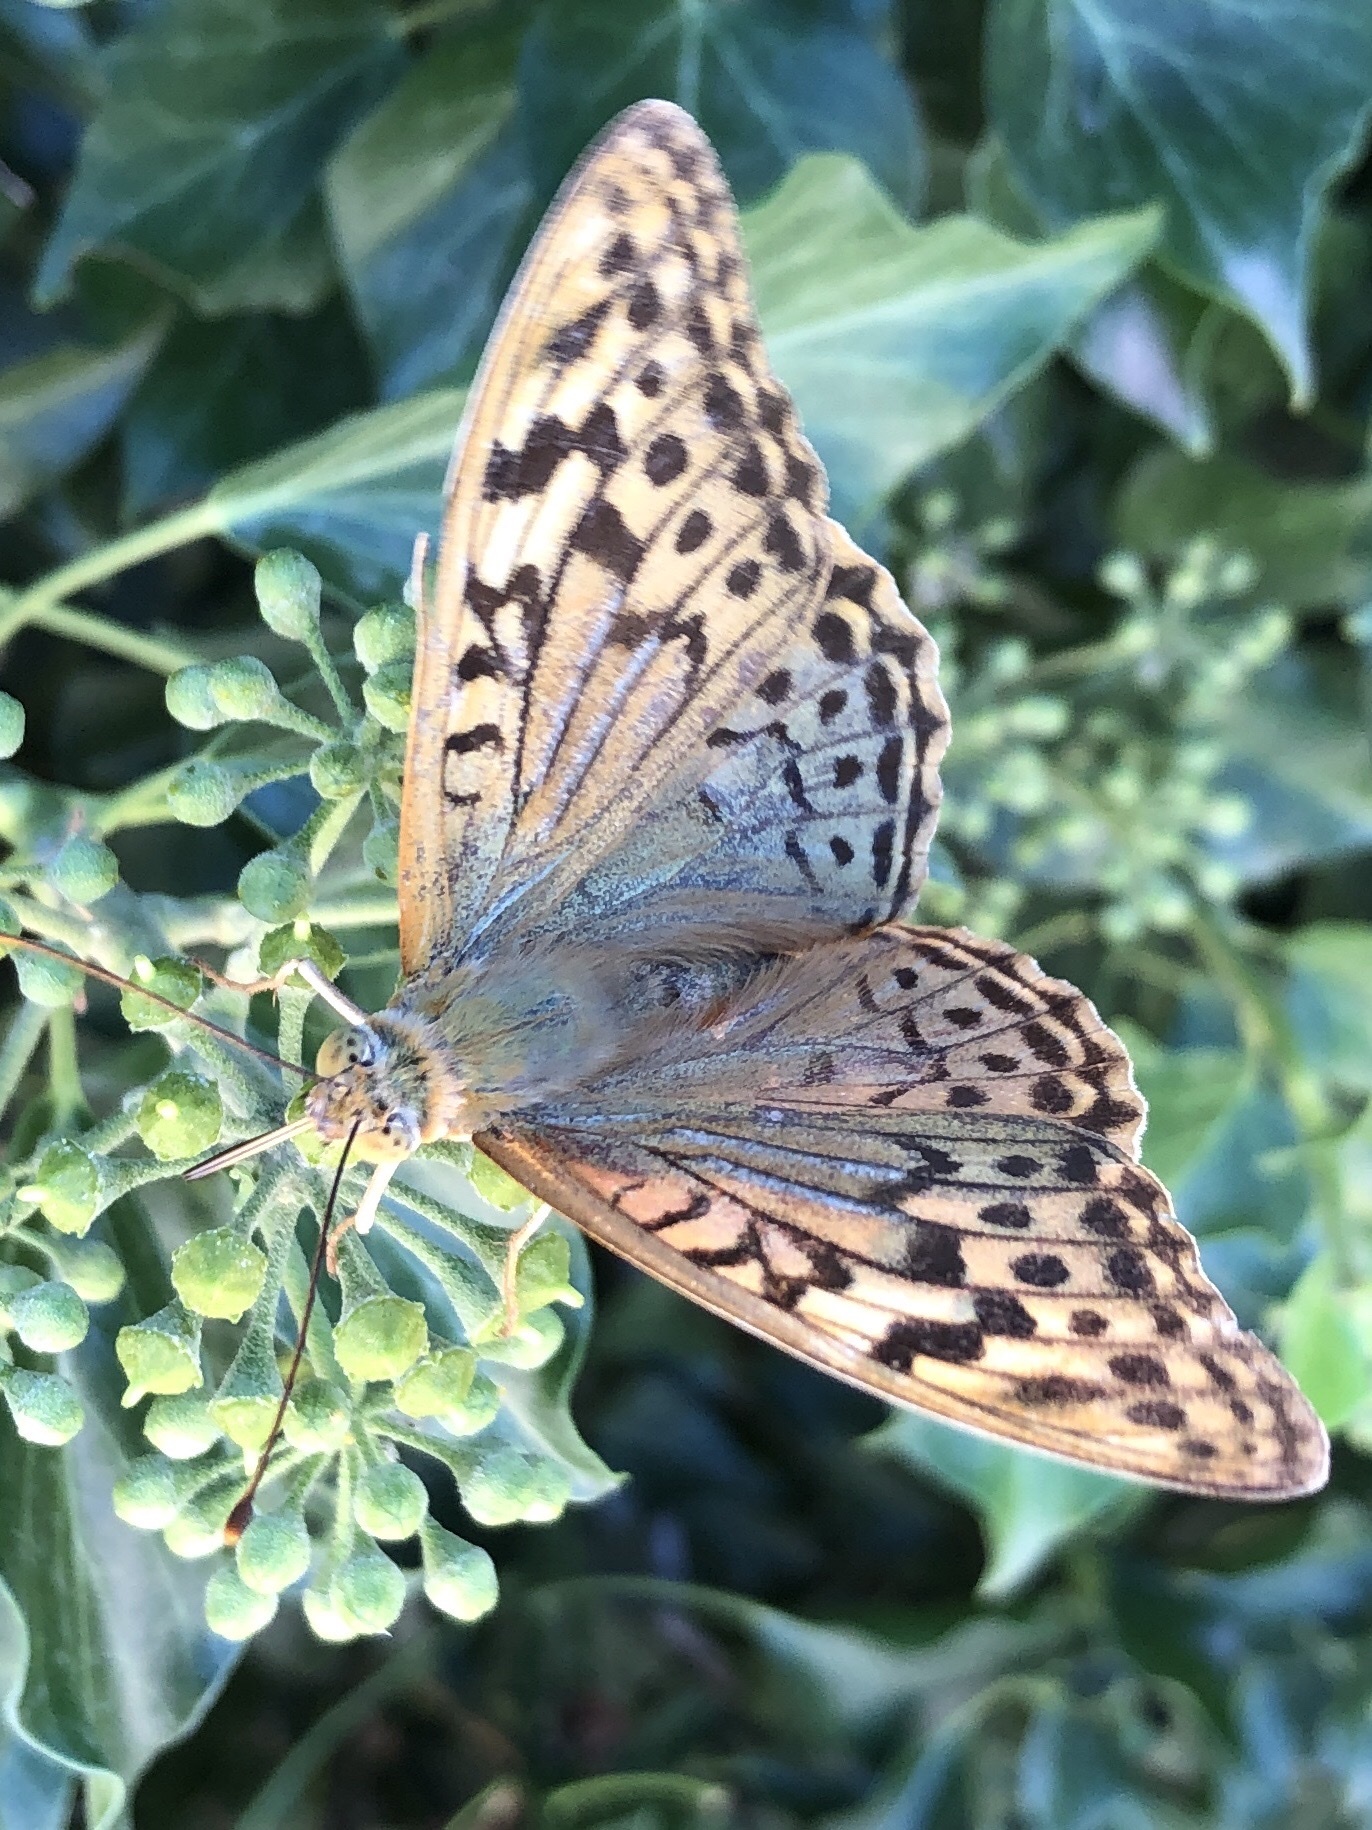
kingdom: Animalia
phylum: Arthropoda
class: Insecta
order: Lepidoptera
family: Nymphalidae
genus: Damora
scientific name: Damora pandora
